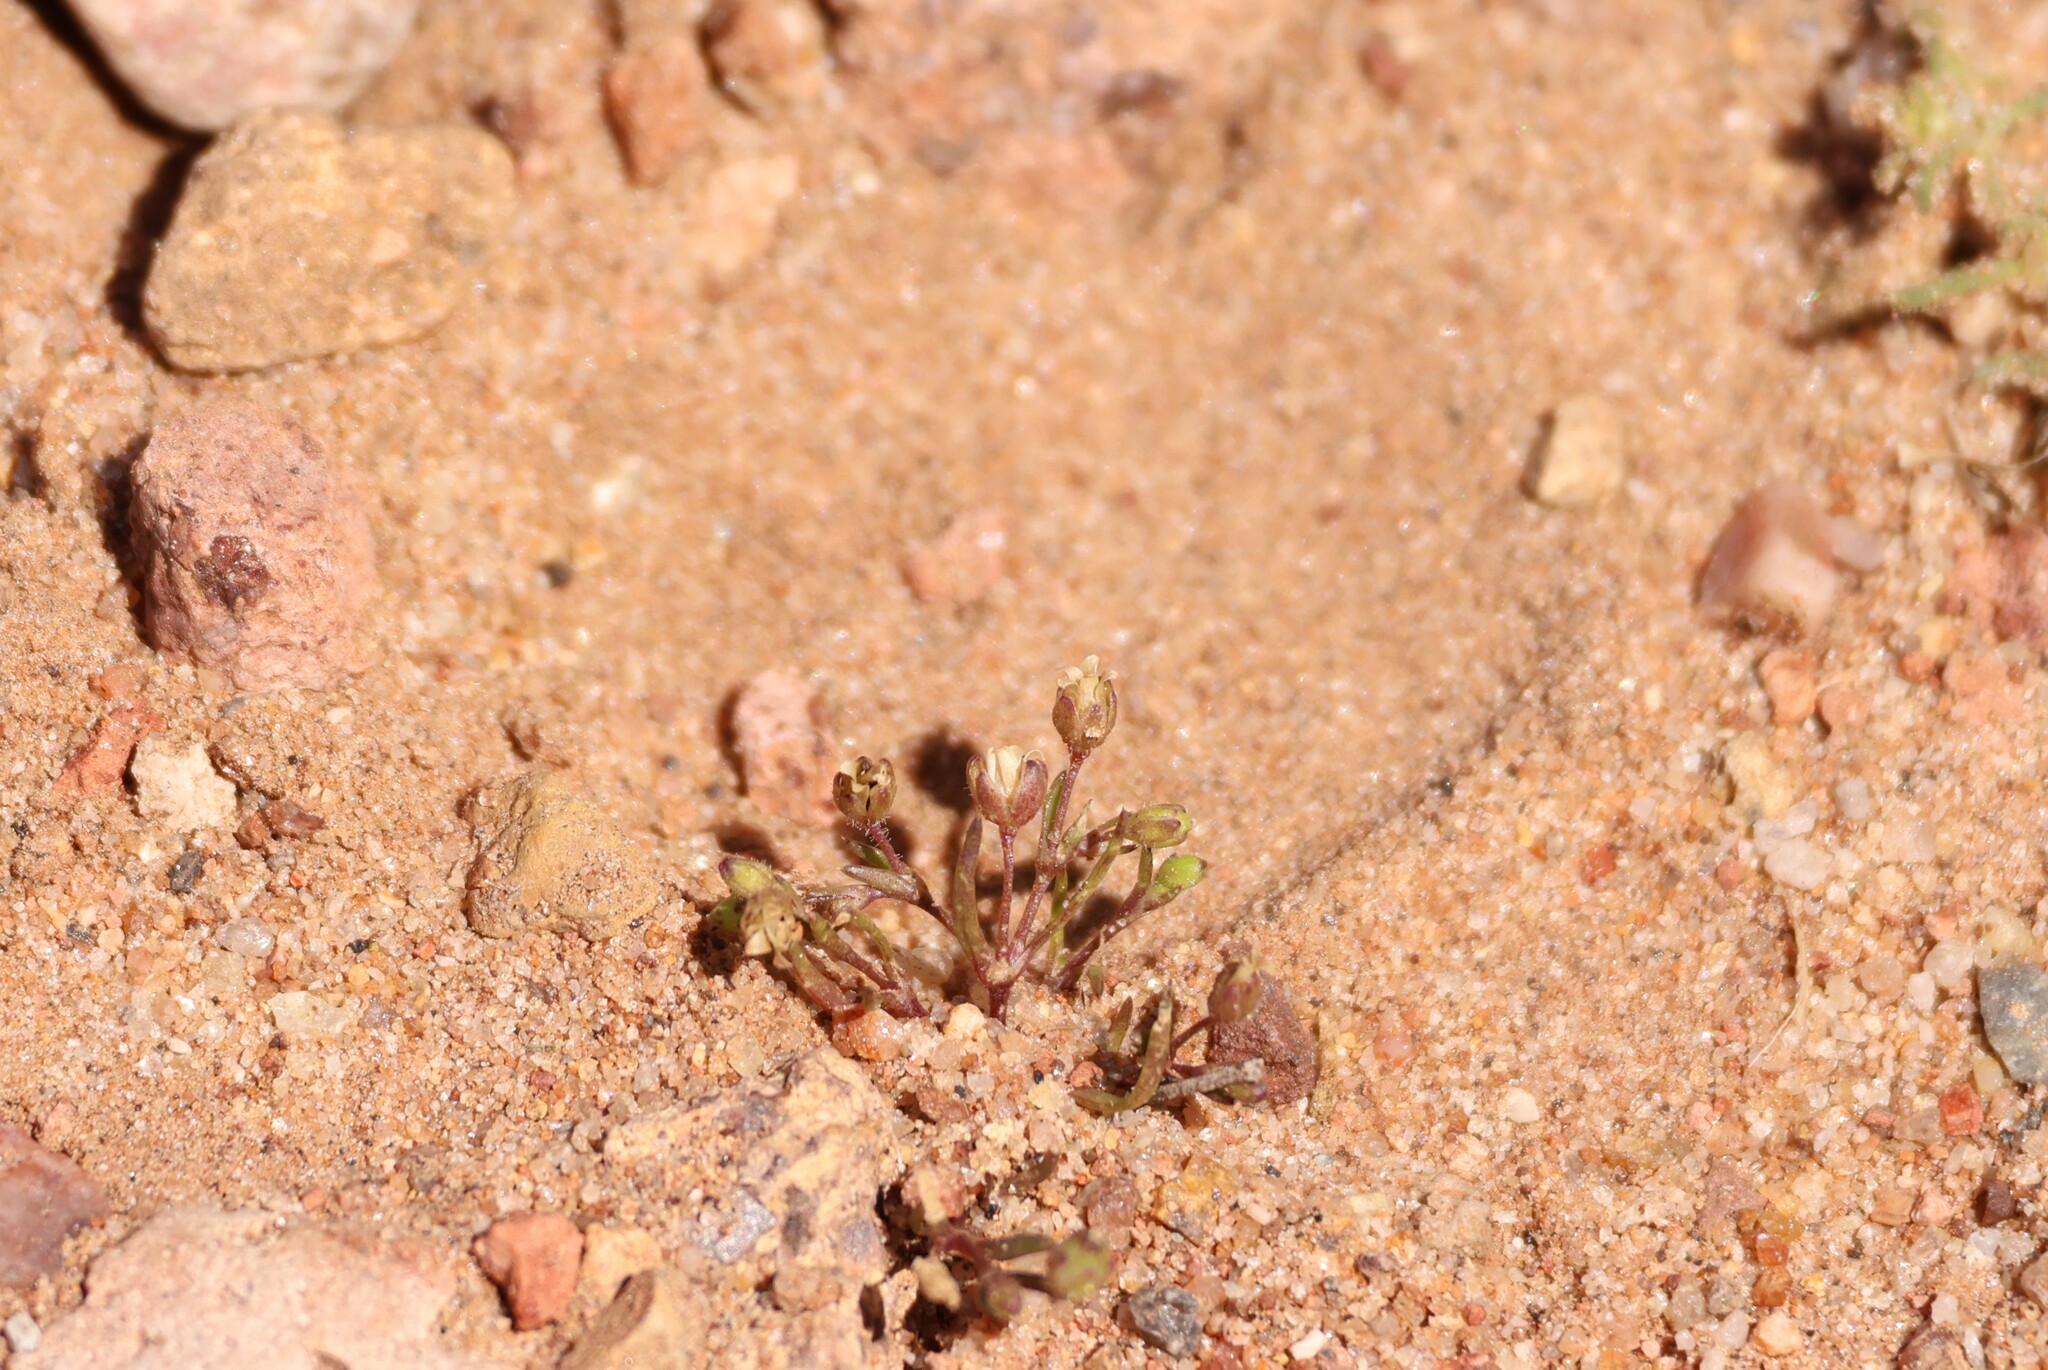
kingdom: Plantae
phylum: Tracheophyta
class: Magnoliopsida
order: Caryophyllales
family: Caryophyllaceae
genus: Sagina
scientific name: Sagina apetala
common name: Annual pearlwort
